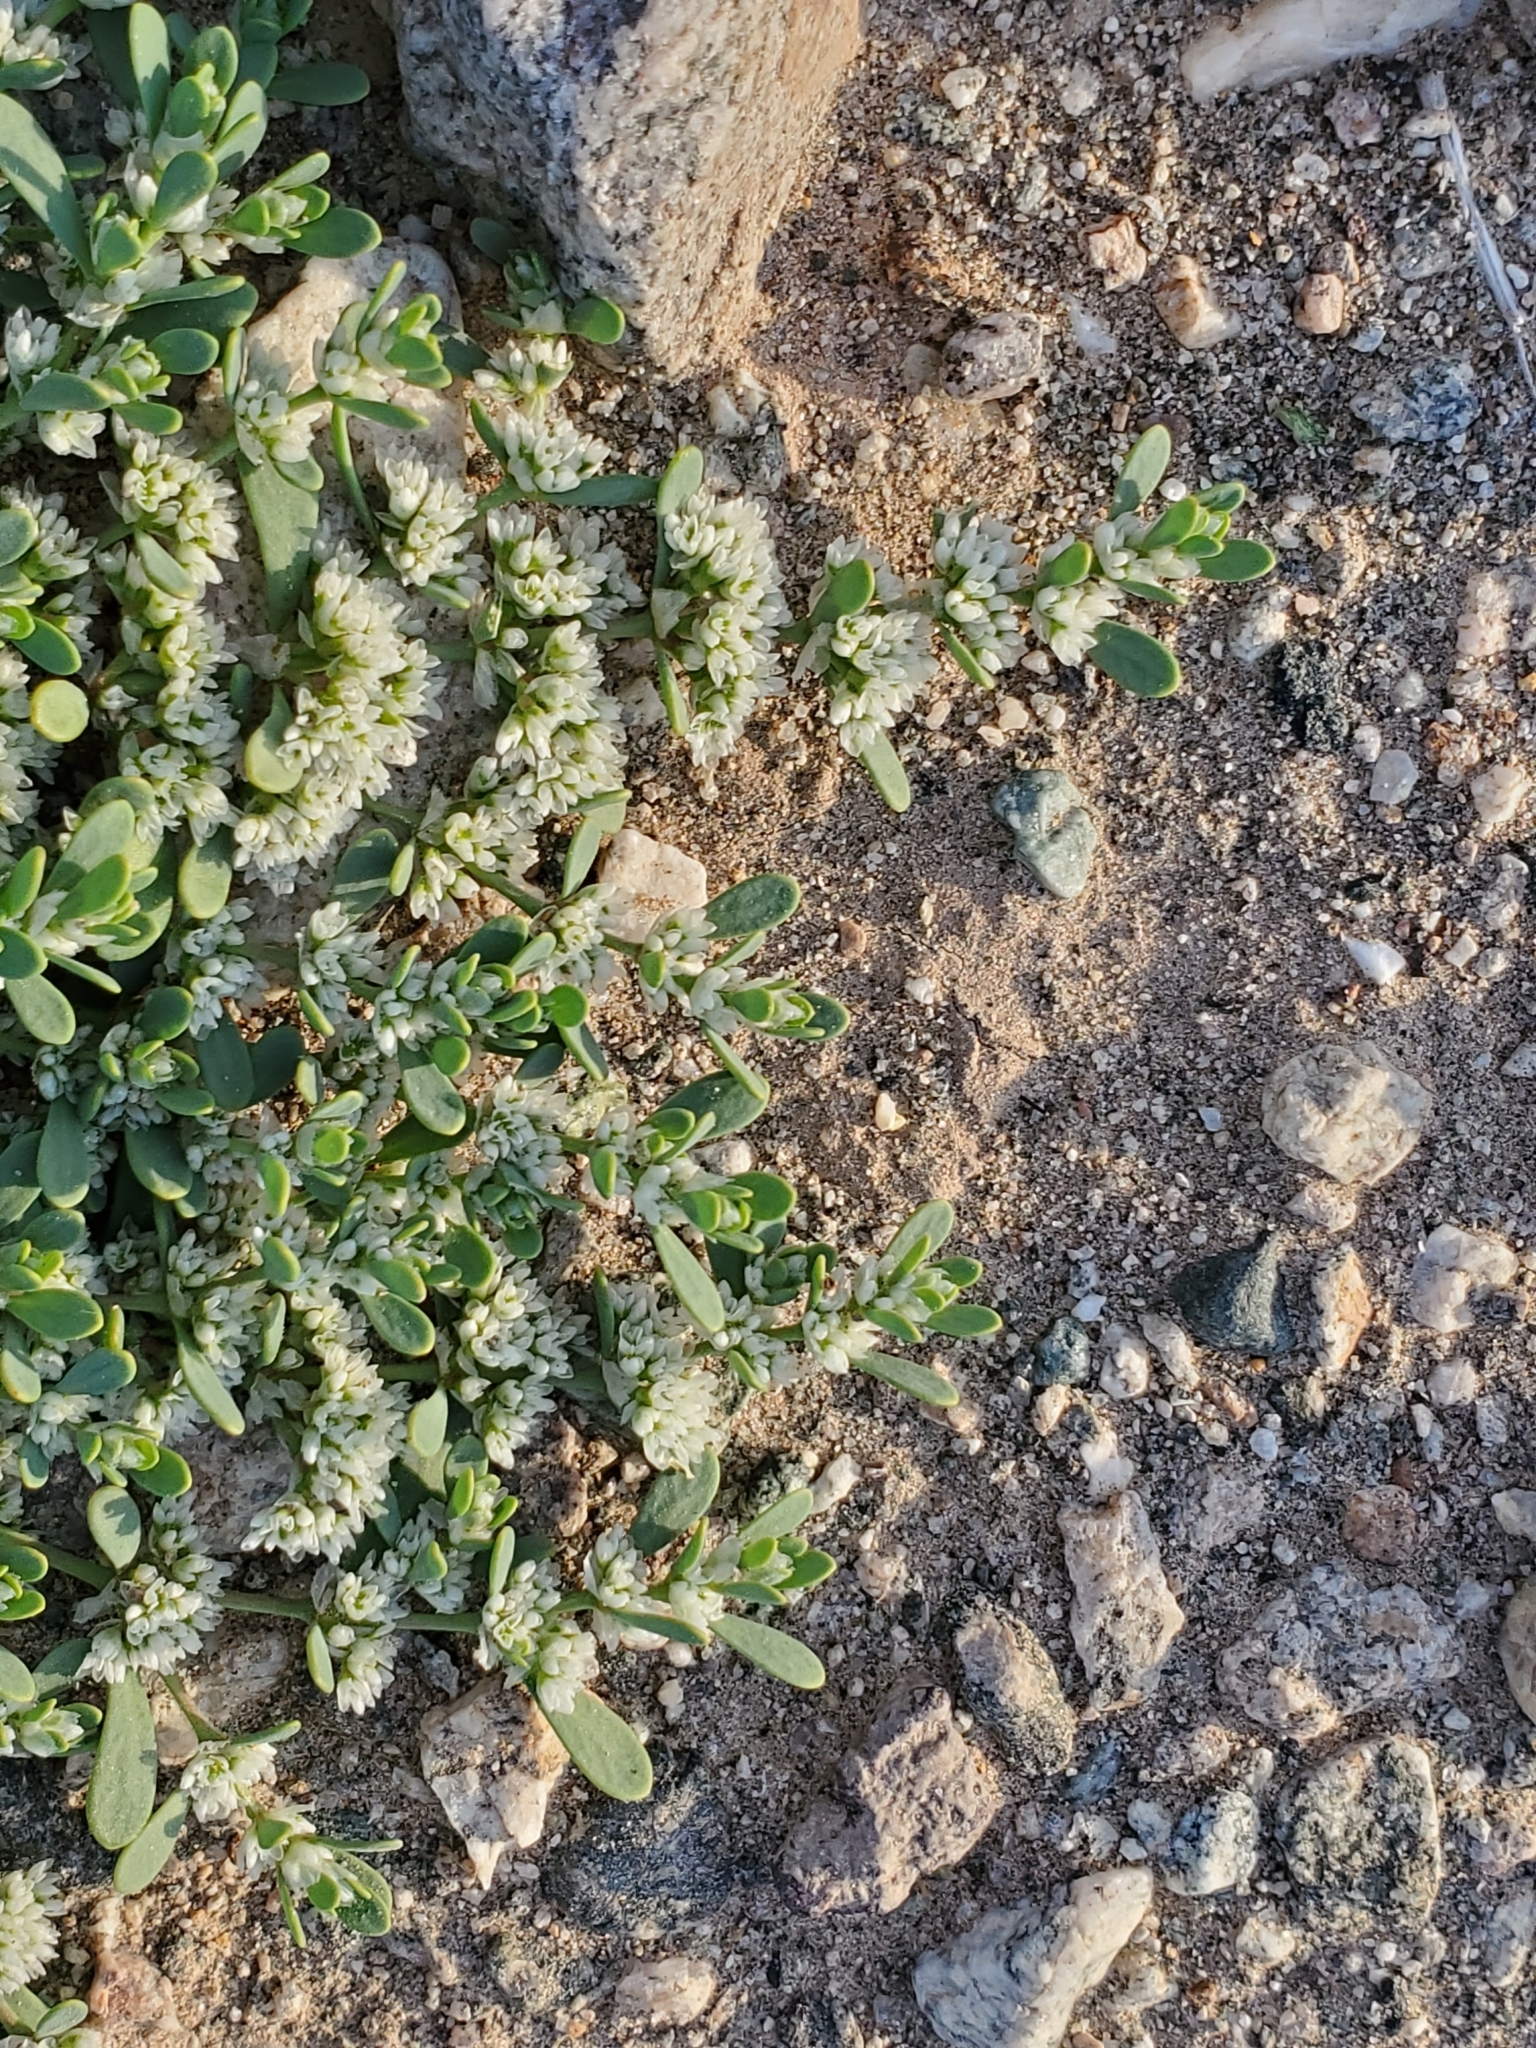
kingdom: Plantae
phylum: Tracheophyta
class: Magnoliopsida
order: Caryophyllales
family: Caryophyllaceae
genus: Achyronychia
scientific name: Achyronychia cooperi
